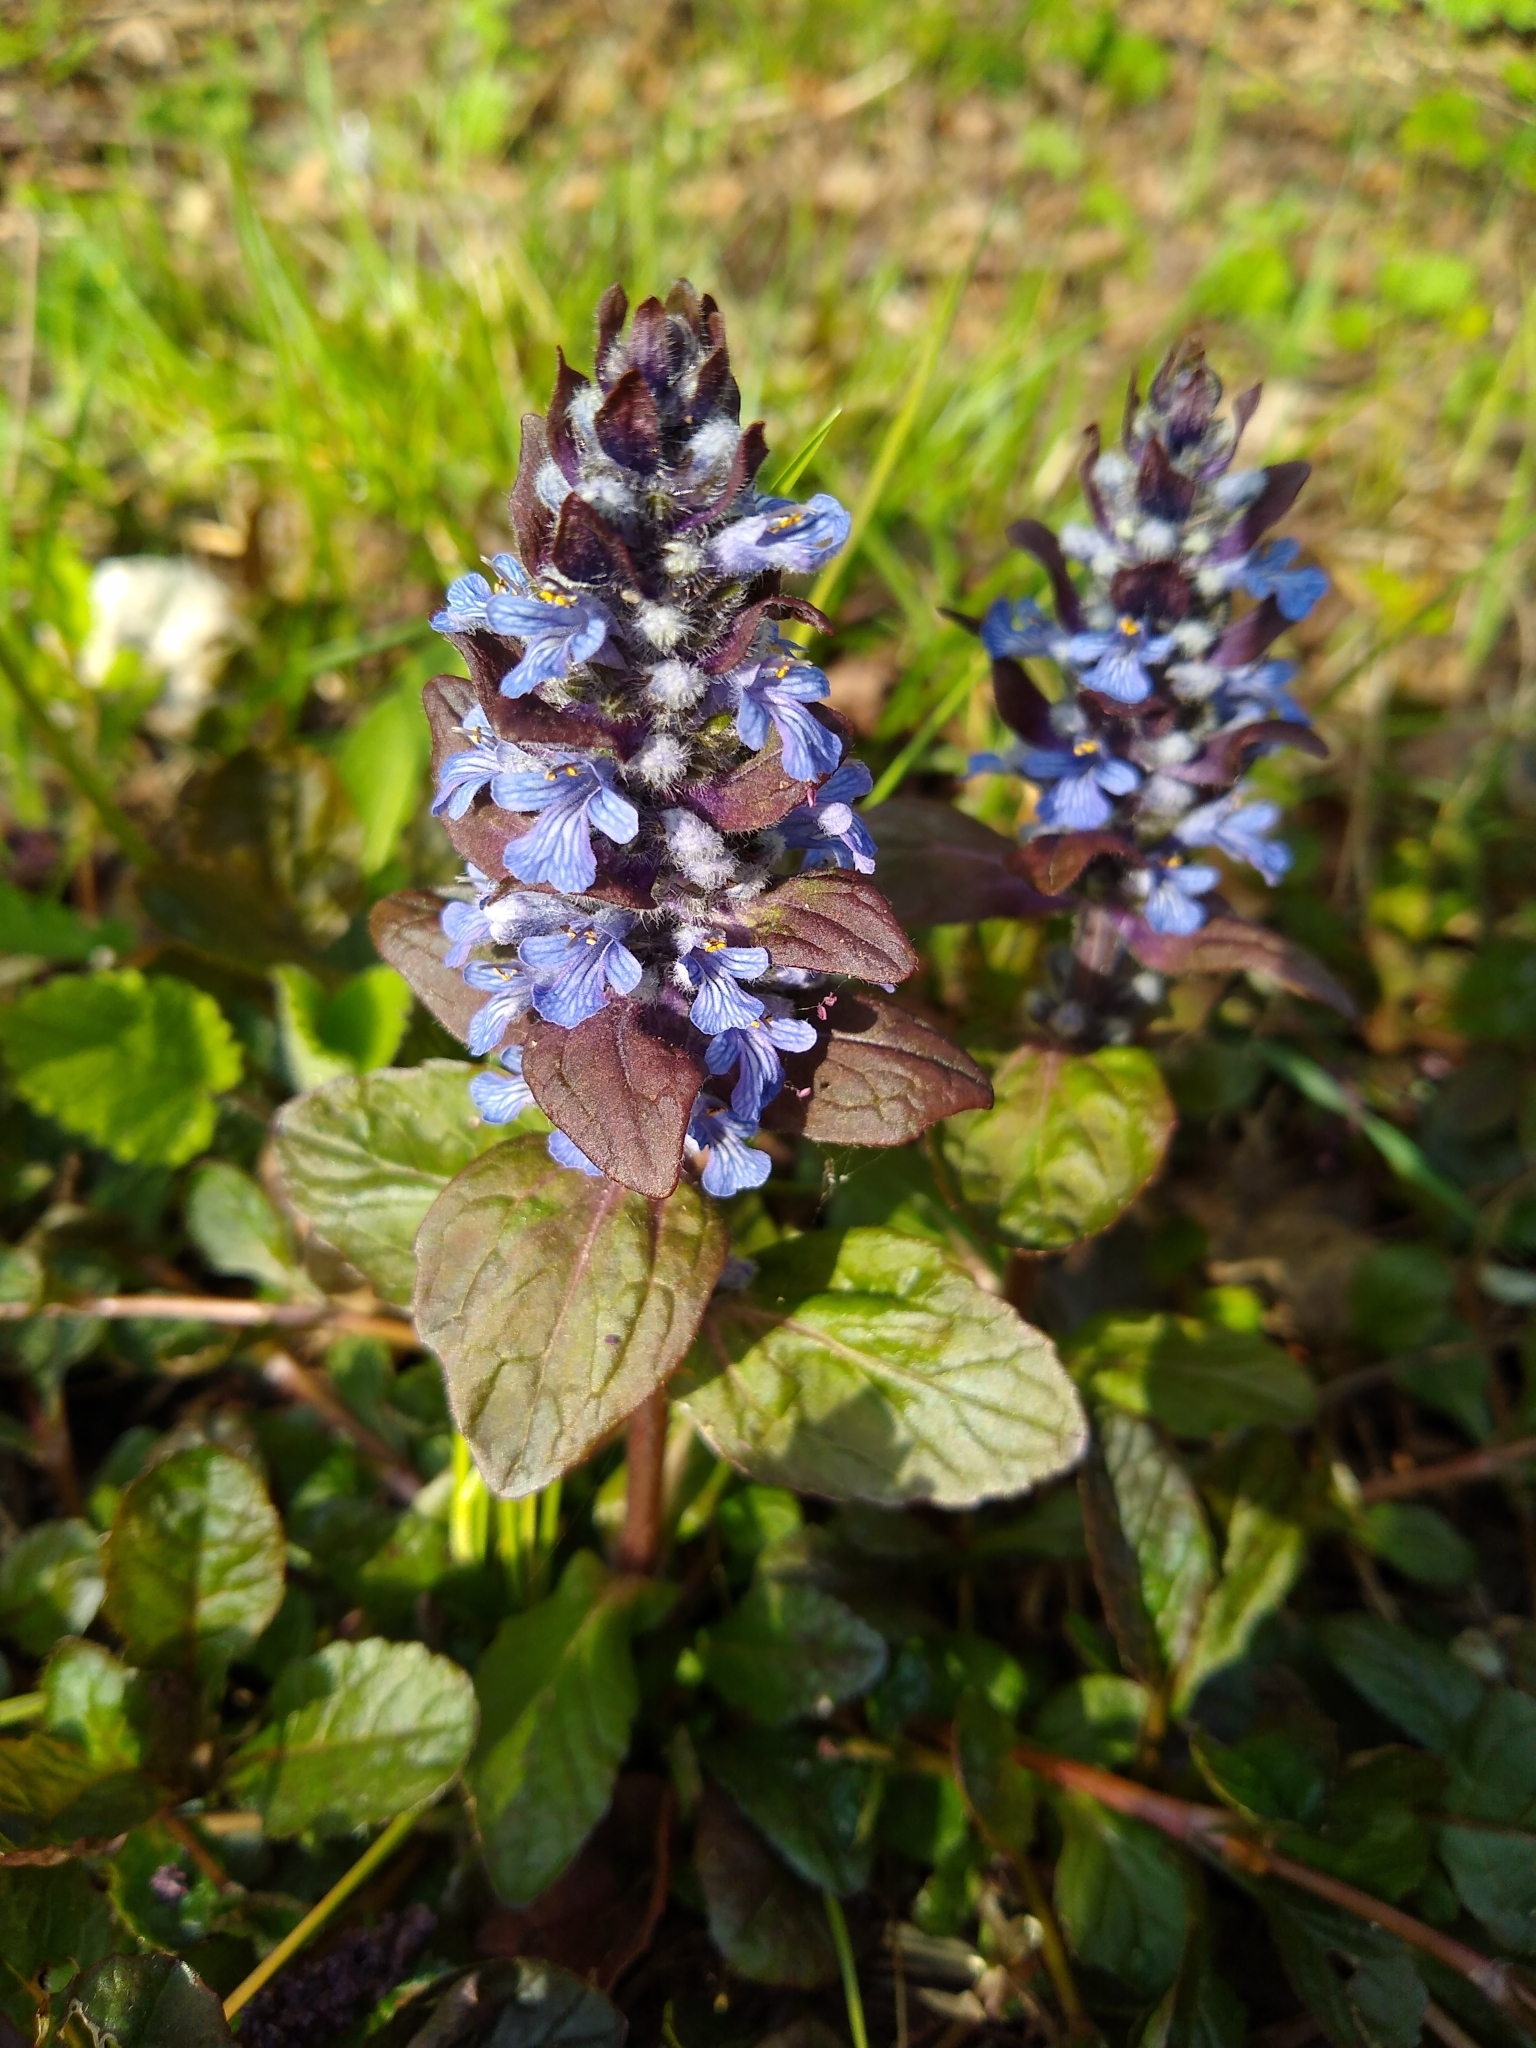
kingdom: Plantae
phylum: Tracheophyta
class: Magnoliopsida
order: Lamiales
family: Lamiaceae
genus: Ajuga
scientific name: Ajuga reptans
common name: Bugle
